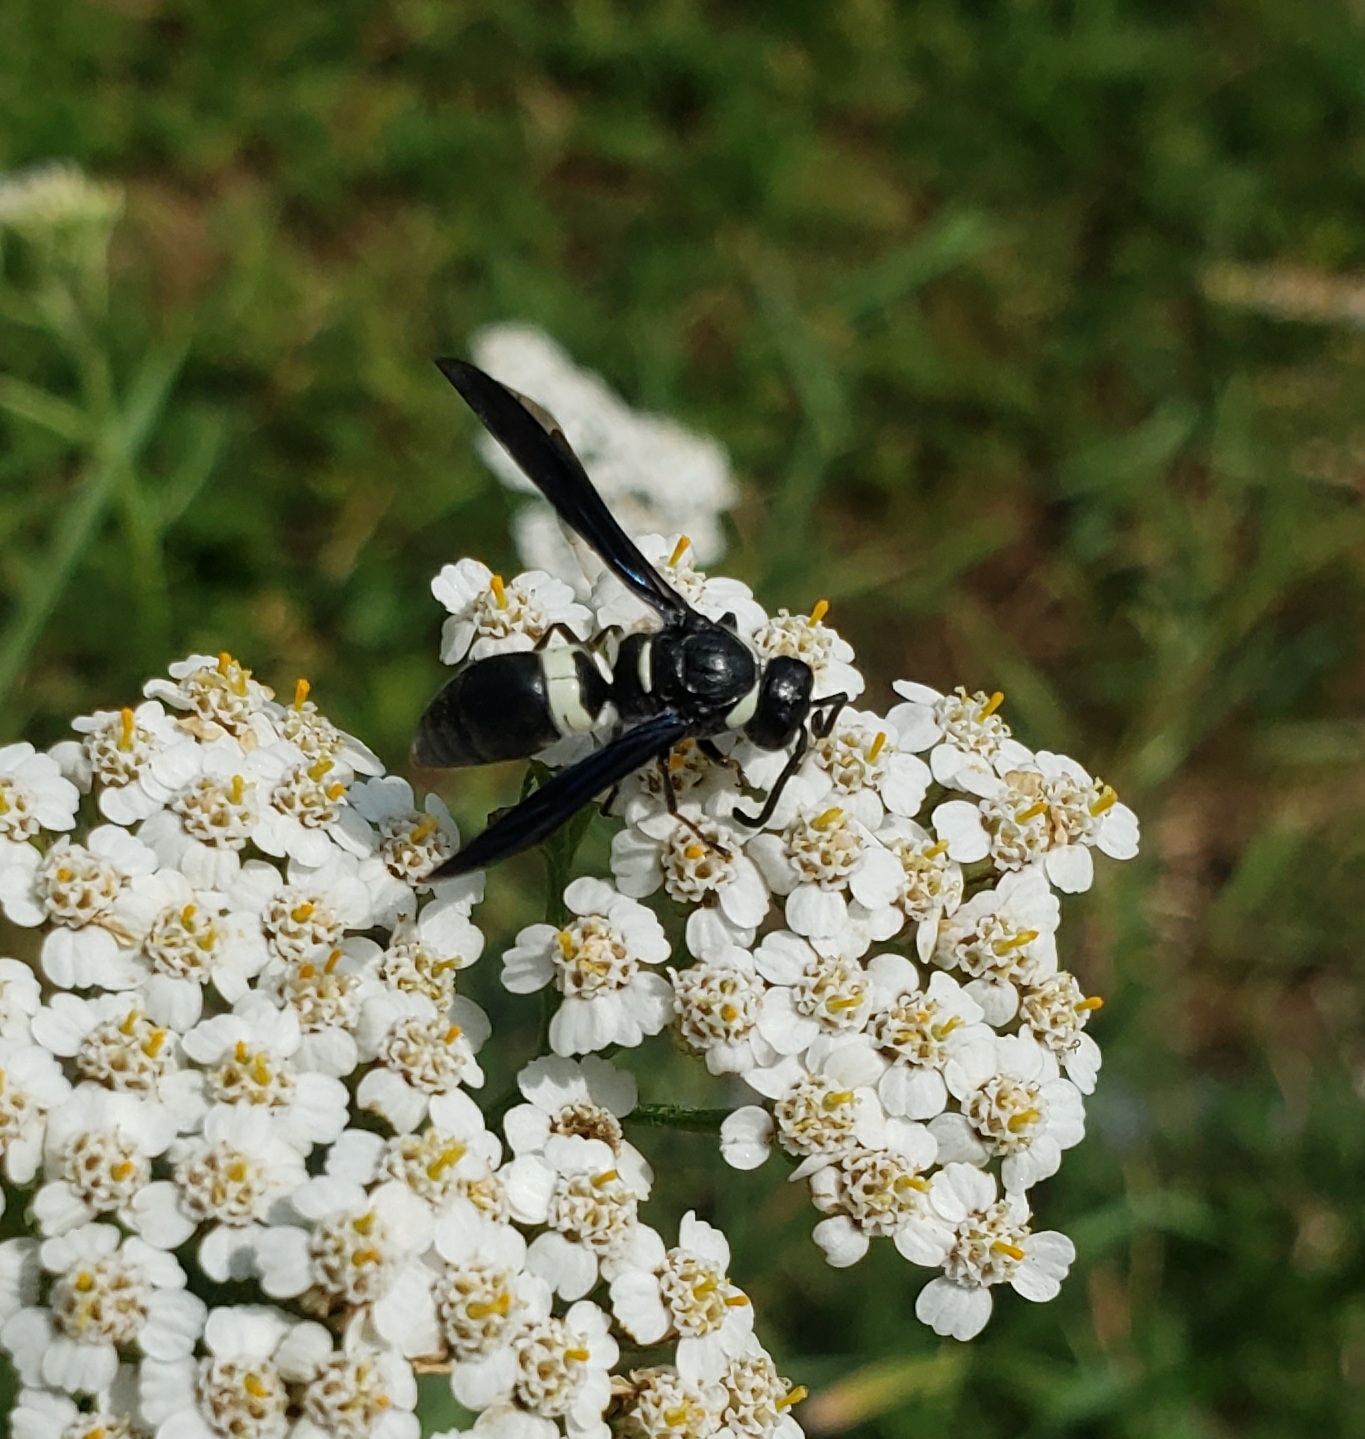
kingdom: Animalia
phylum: Arthropoda
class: Insecta
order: Hymenoptera
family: Eumenidae
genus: Monobia
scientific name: Monobia quadridens
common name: Four-toothed mason wasp
